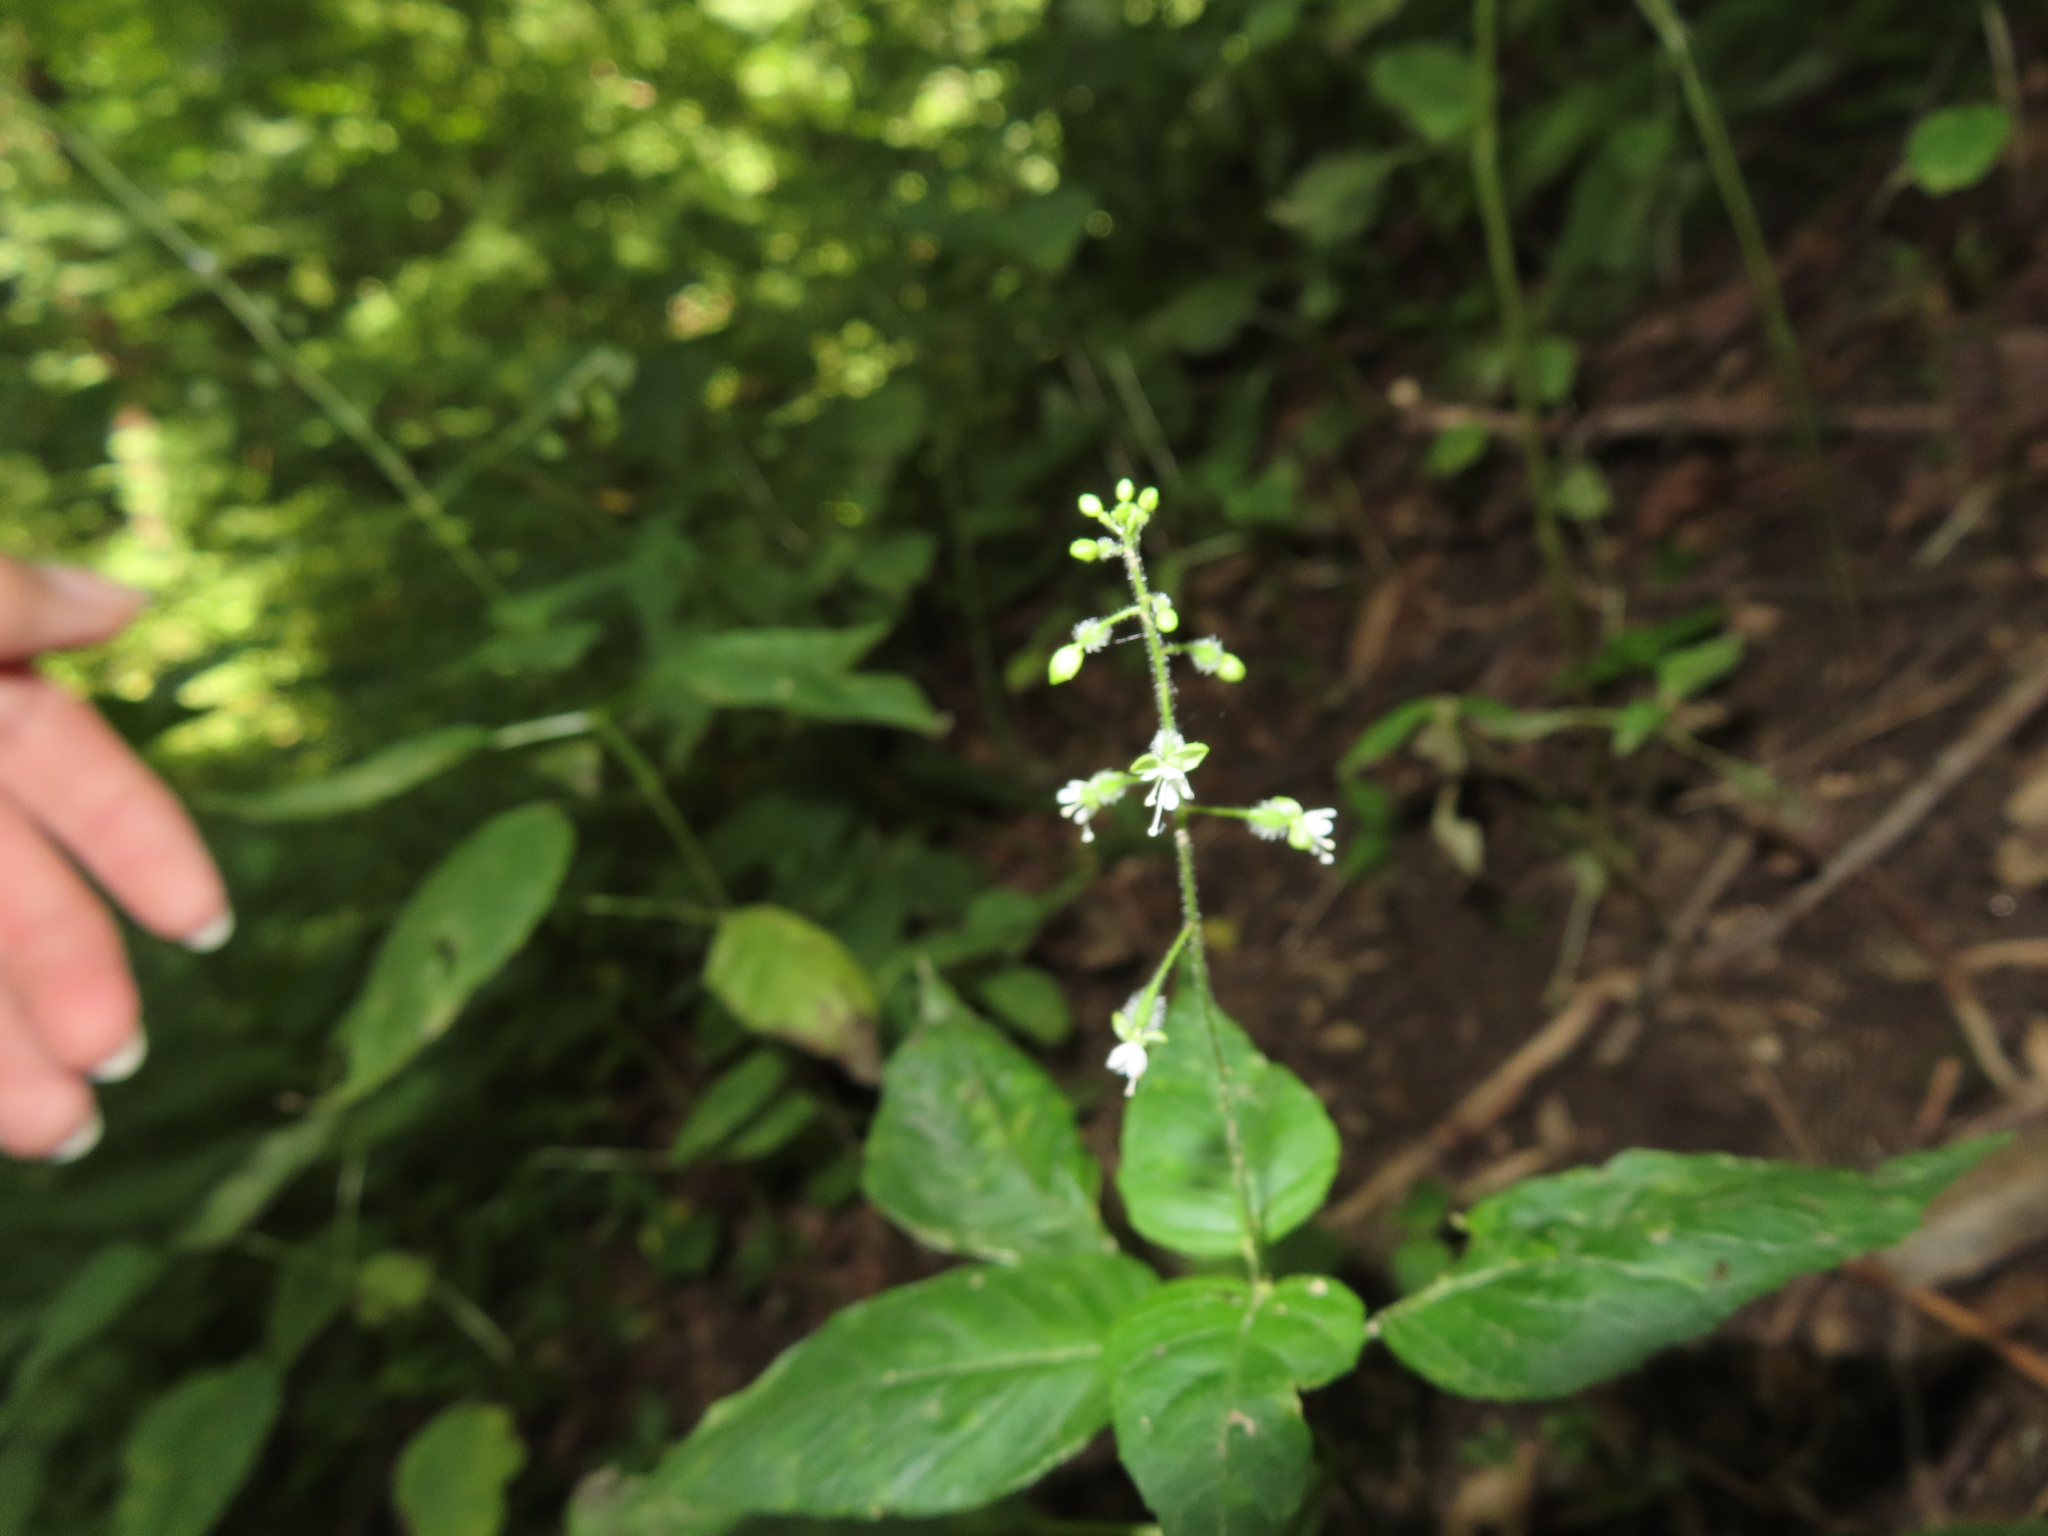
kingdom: Plantae
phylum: Tracheophyta
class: Magnoliopsida
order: Myrtales
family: Onagraceae
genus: Circaea
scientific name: Circaea canadensis
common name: Broad-leaved enchanter's nightshade
